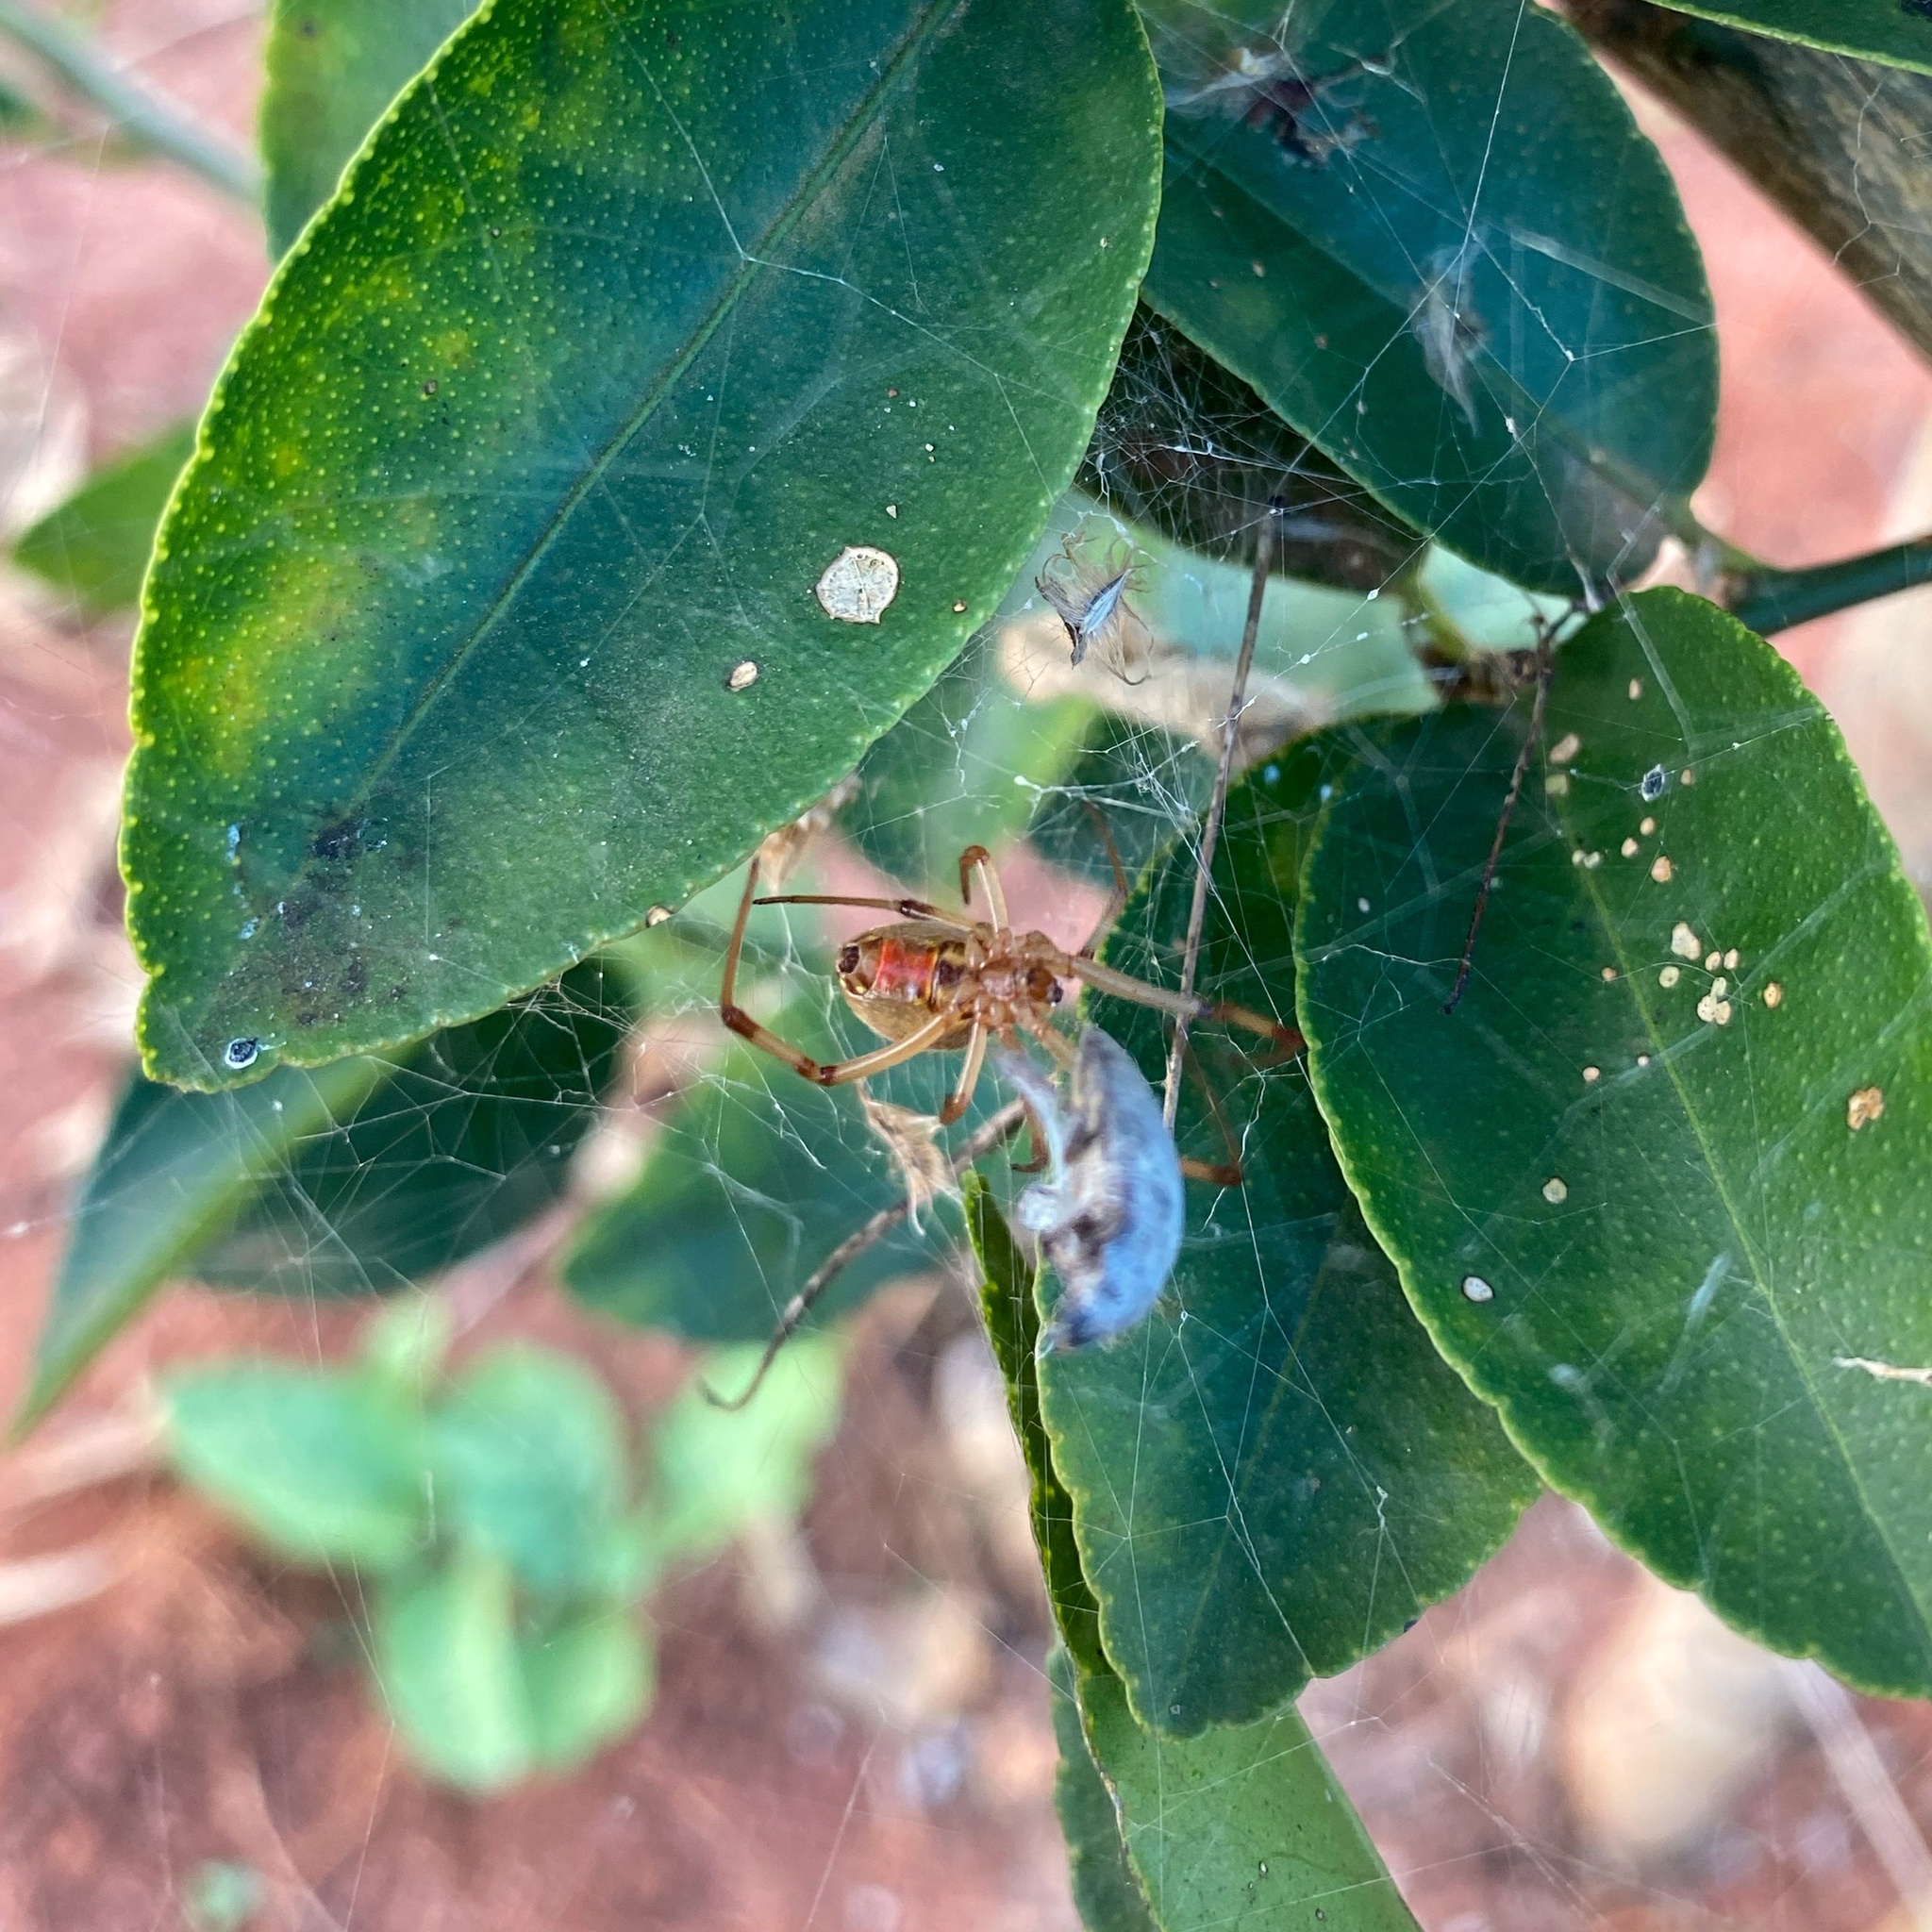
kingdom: Animalia
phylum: Arthropoda
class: Arachnida
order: Araneae
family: Theridiidae
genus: Latrodectus
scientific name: Latrodectus geometricus
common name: Brown widow spider
